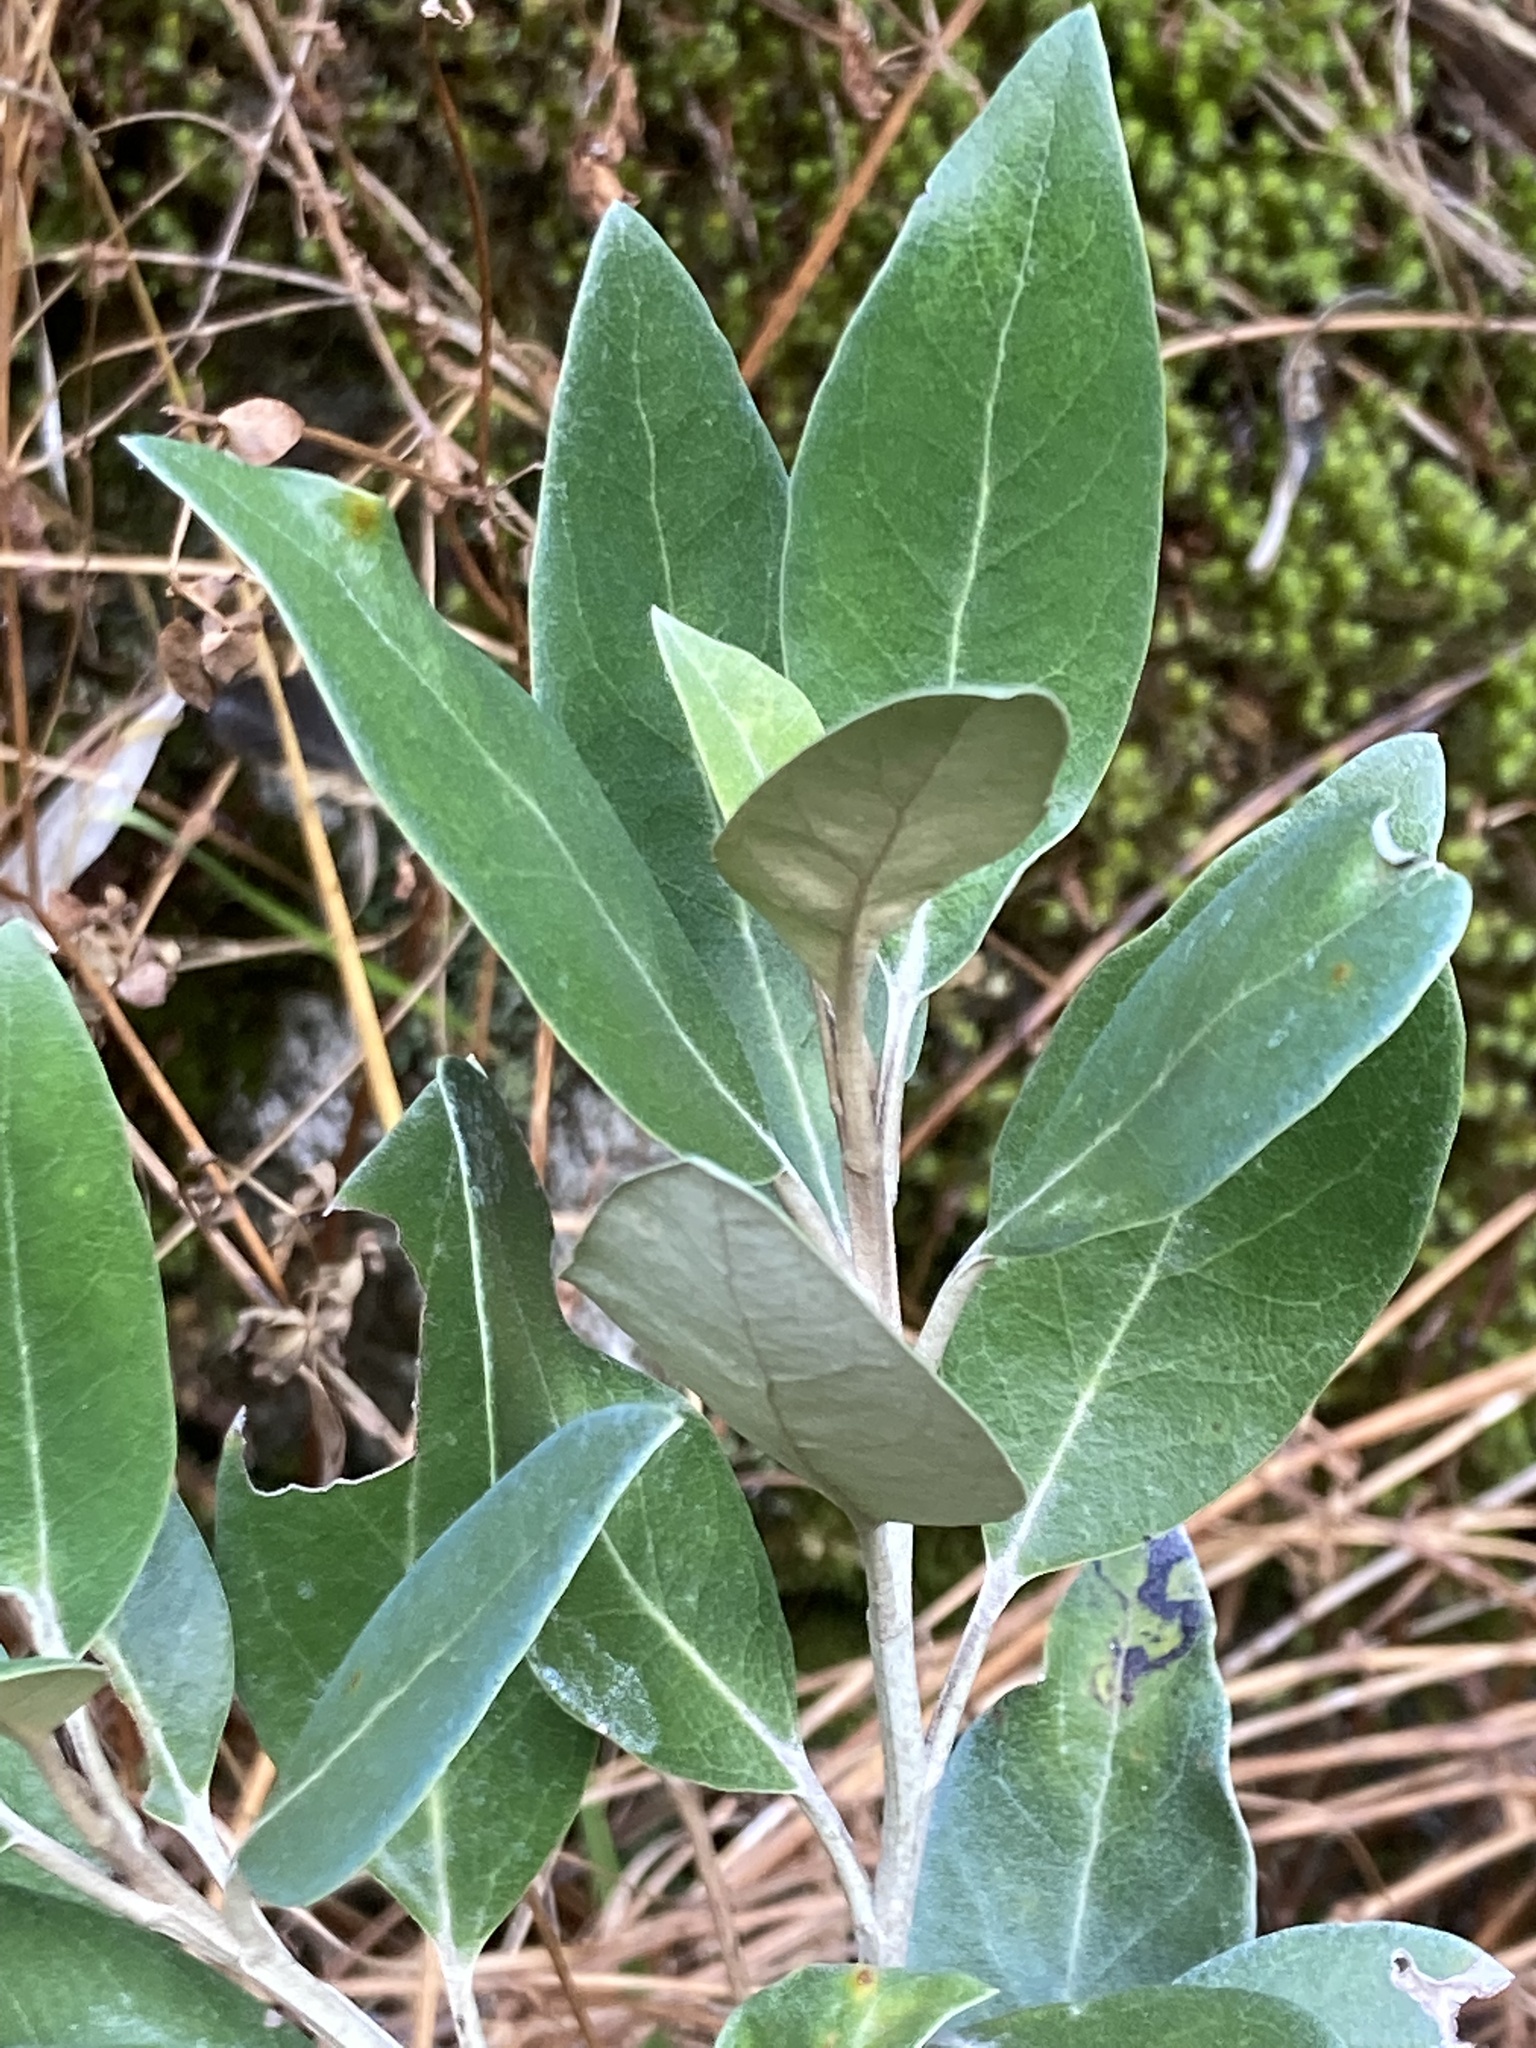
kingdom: Plantae
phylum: Tracheophyta
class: Magnoliopsida
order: Asterales
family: Asteraceae
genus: Olearia
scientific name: Olearia avicenniifolia
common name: Mangrove-leaf daisybush
